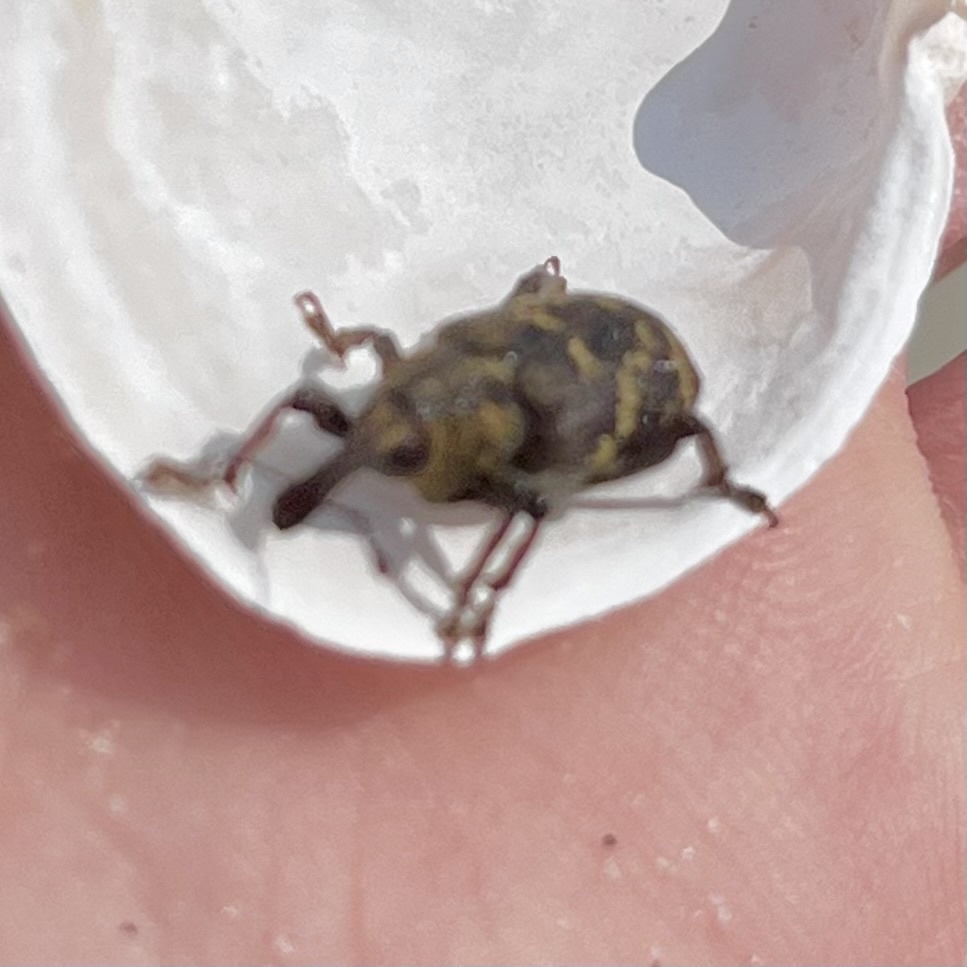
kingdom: Animalia
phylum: Arthropoda
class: Insecta
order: Coleoptera
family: Curculionidae
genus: Hylobius
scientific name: Hylobius abietis
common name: Large pine weevil
